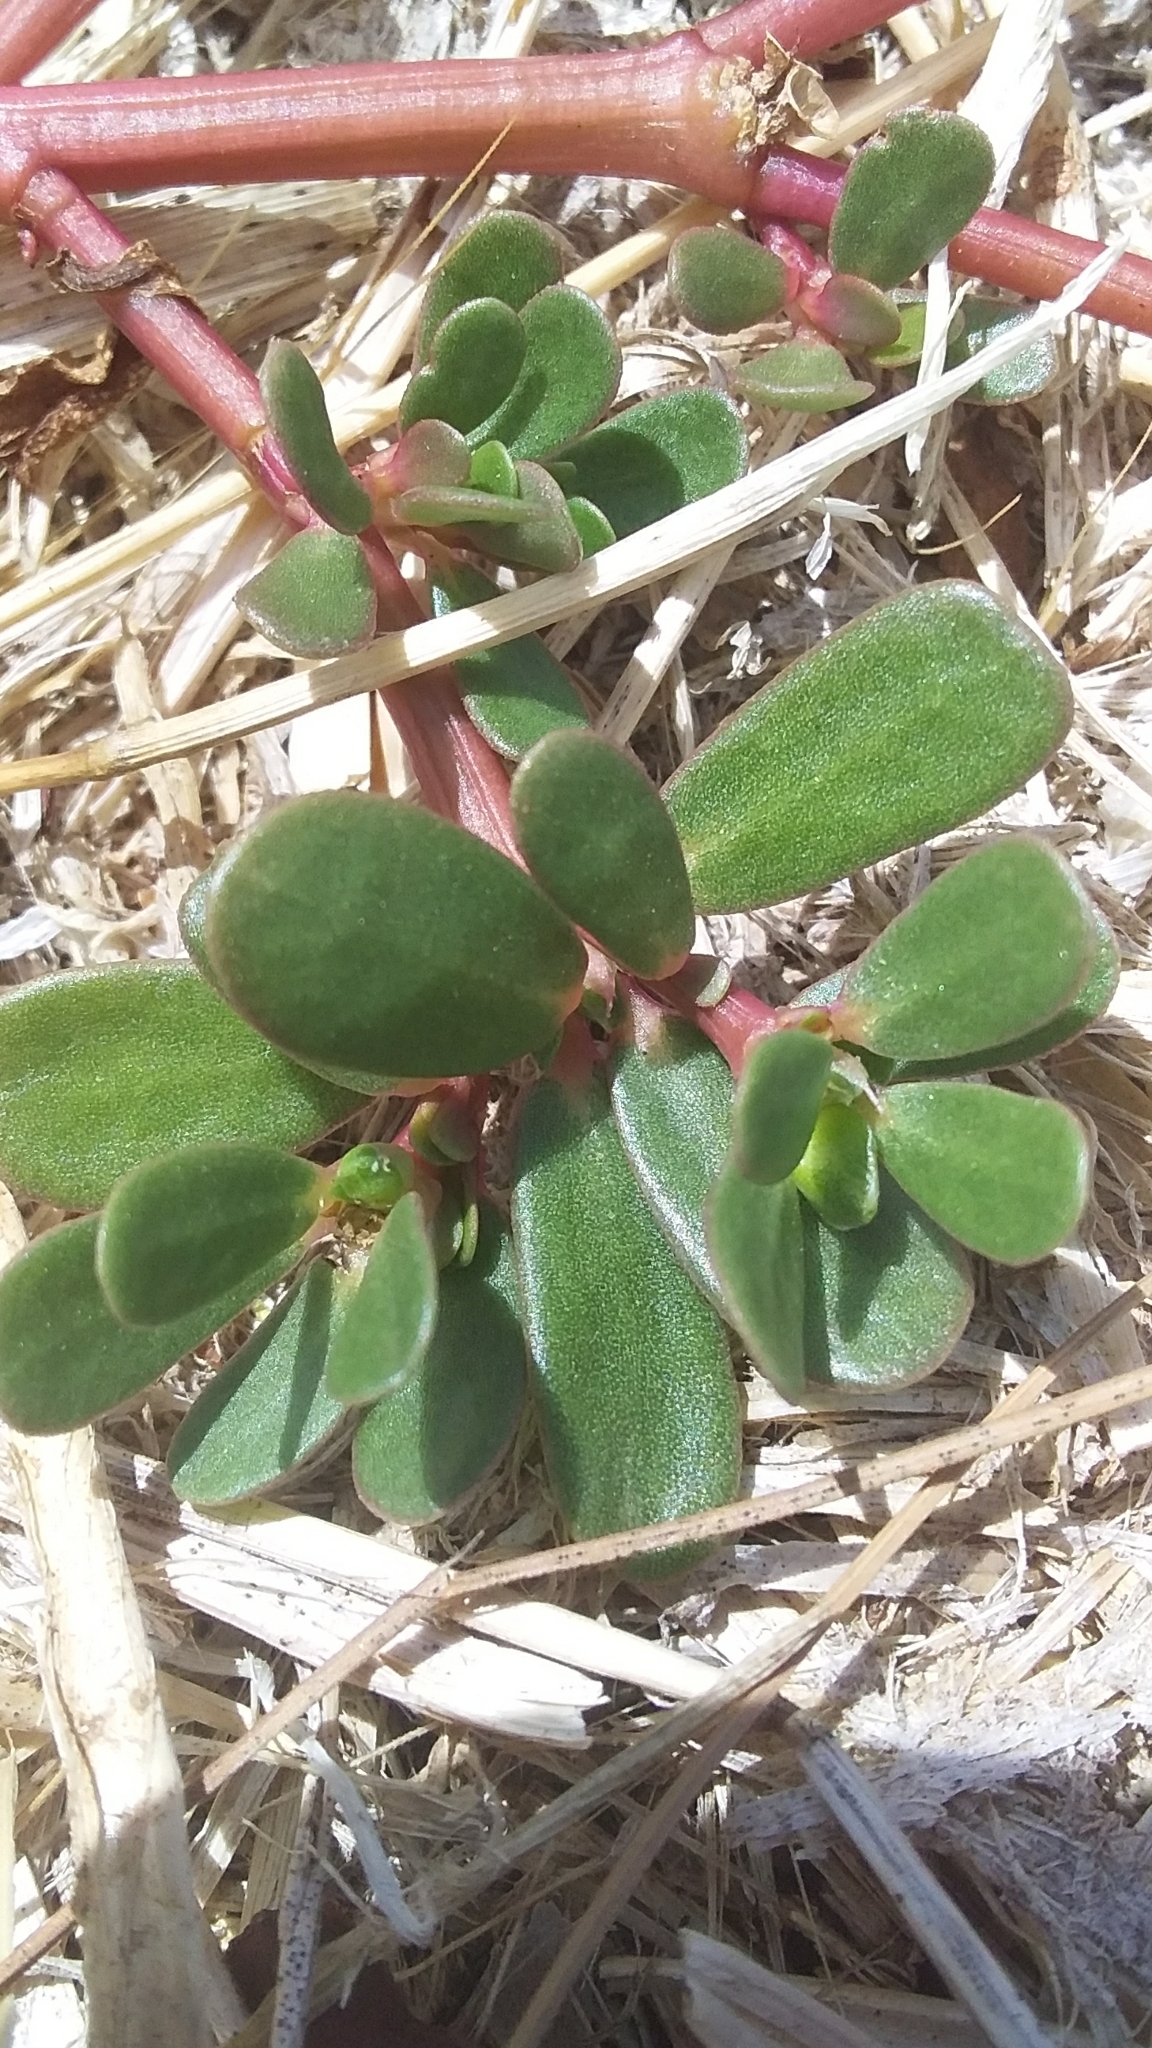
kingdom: Plantae
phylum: Tracheophyta
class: Magnoliopsida
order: Caryophyllales
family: Portulacaceae
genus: Portulaca
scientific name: Portulaca oleracea
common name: Common purslane
